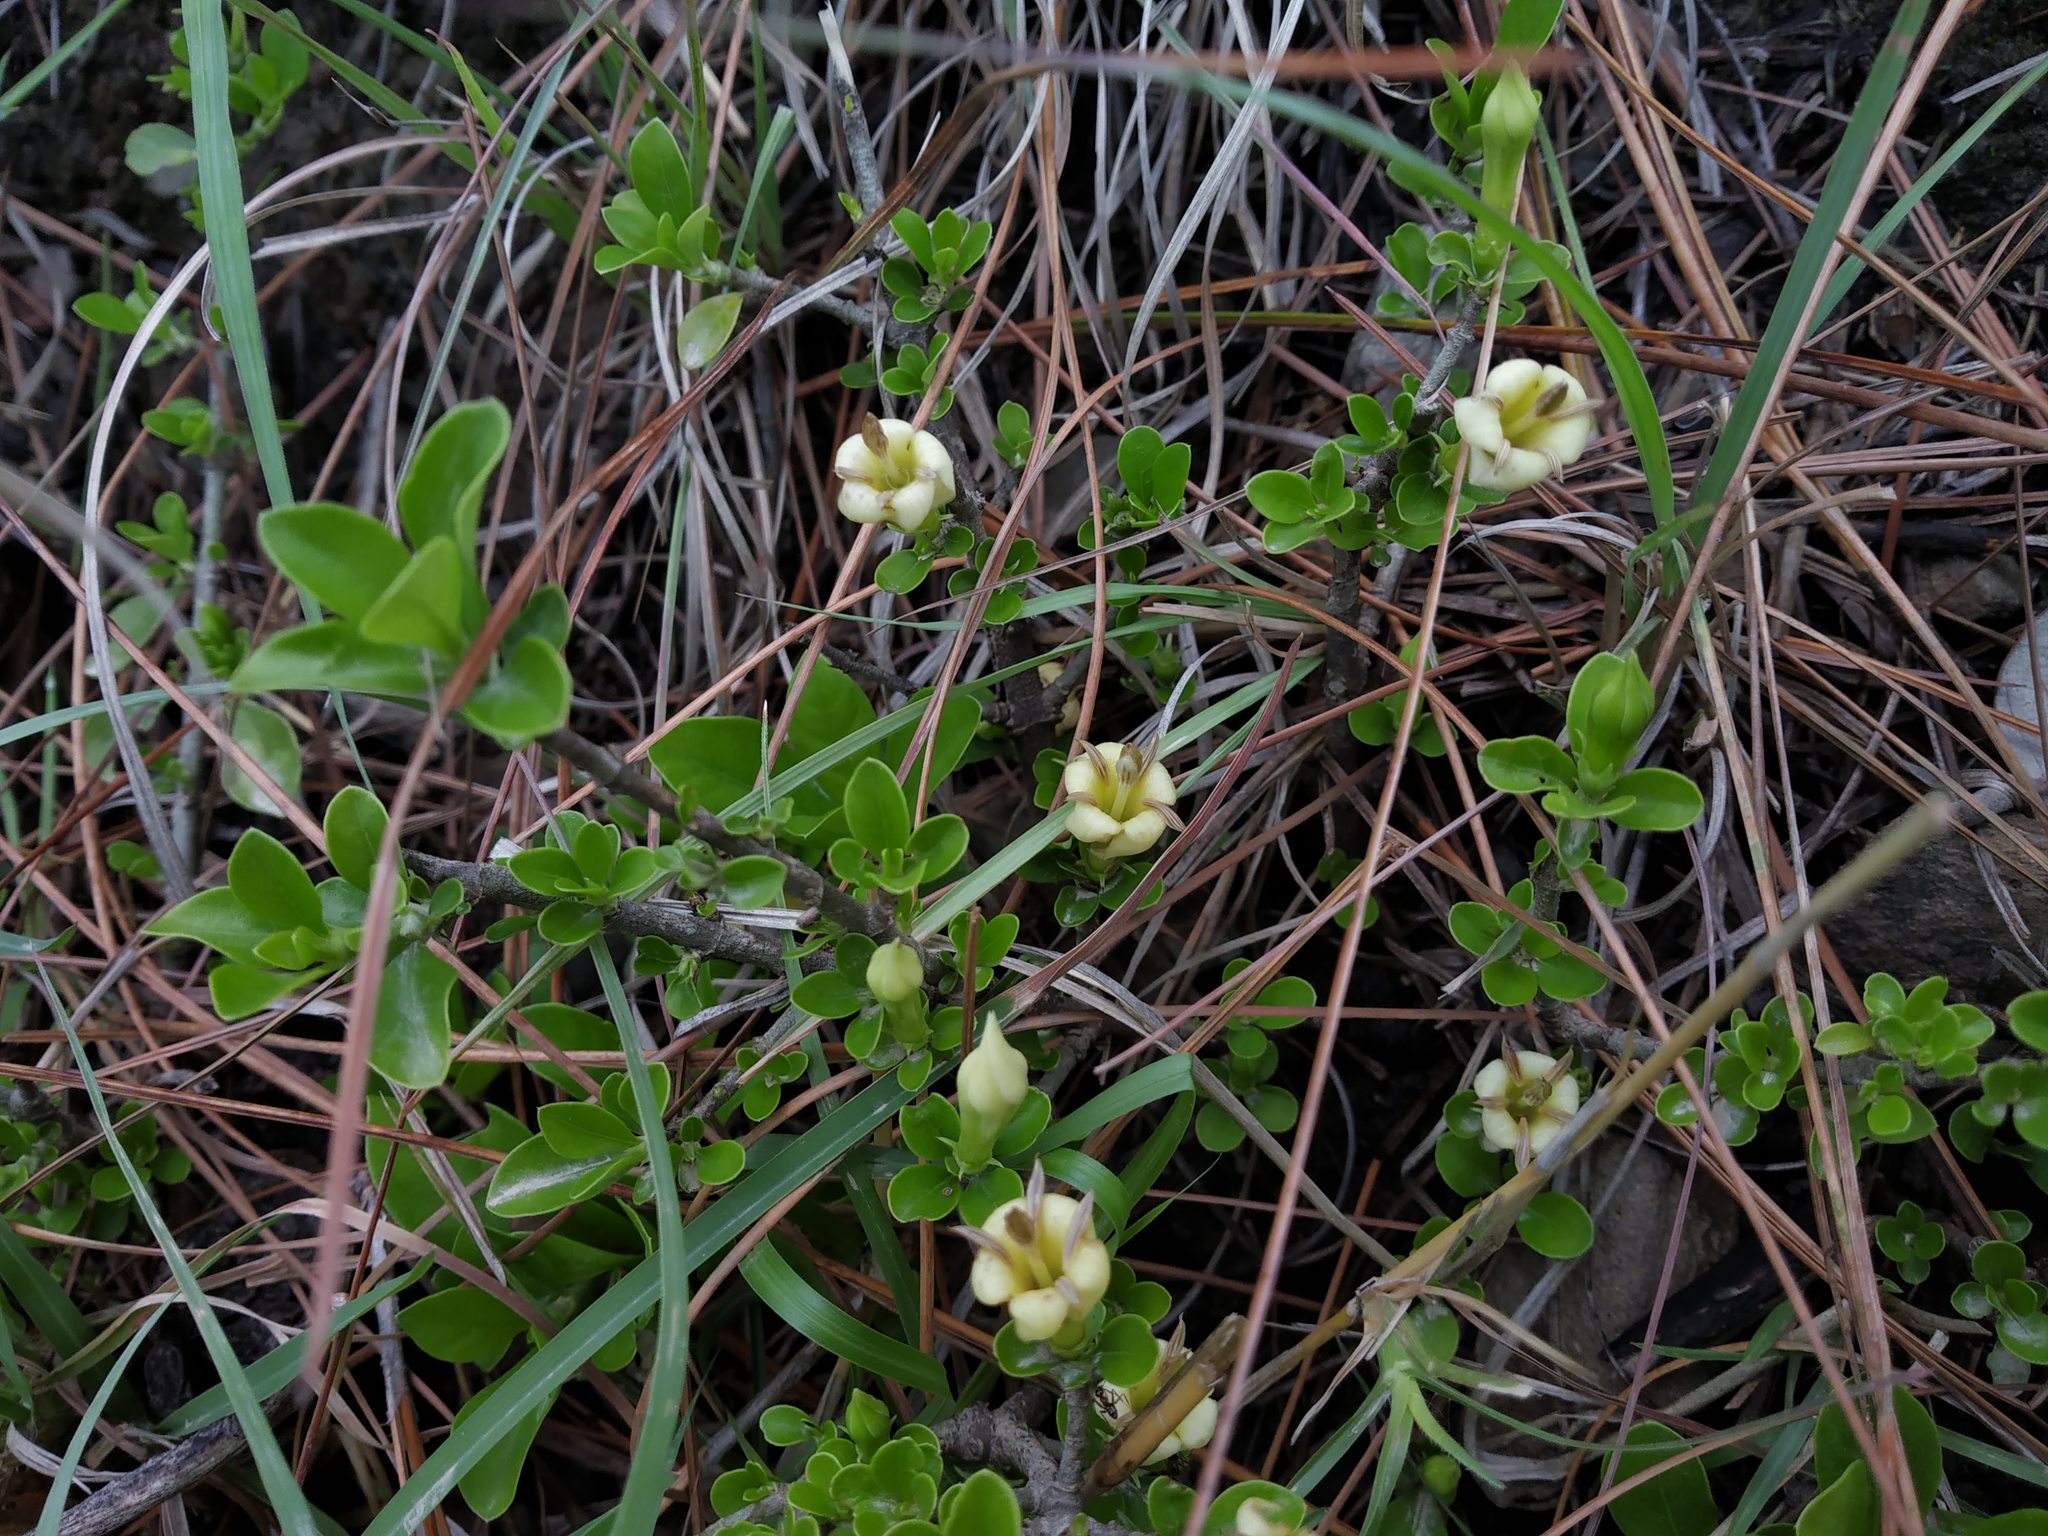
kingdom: Plantae
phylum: Tracheophyta
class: Magnoliopsida
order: Gentianales
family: Rubiaceae
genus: Himalrandia
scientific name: Himalrandia tetrasperma
